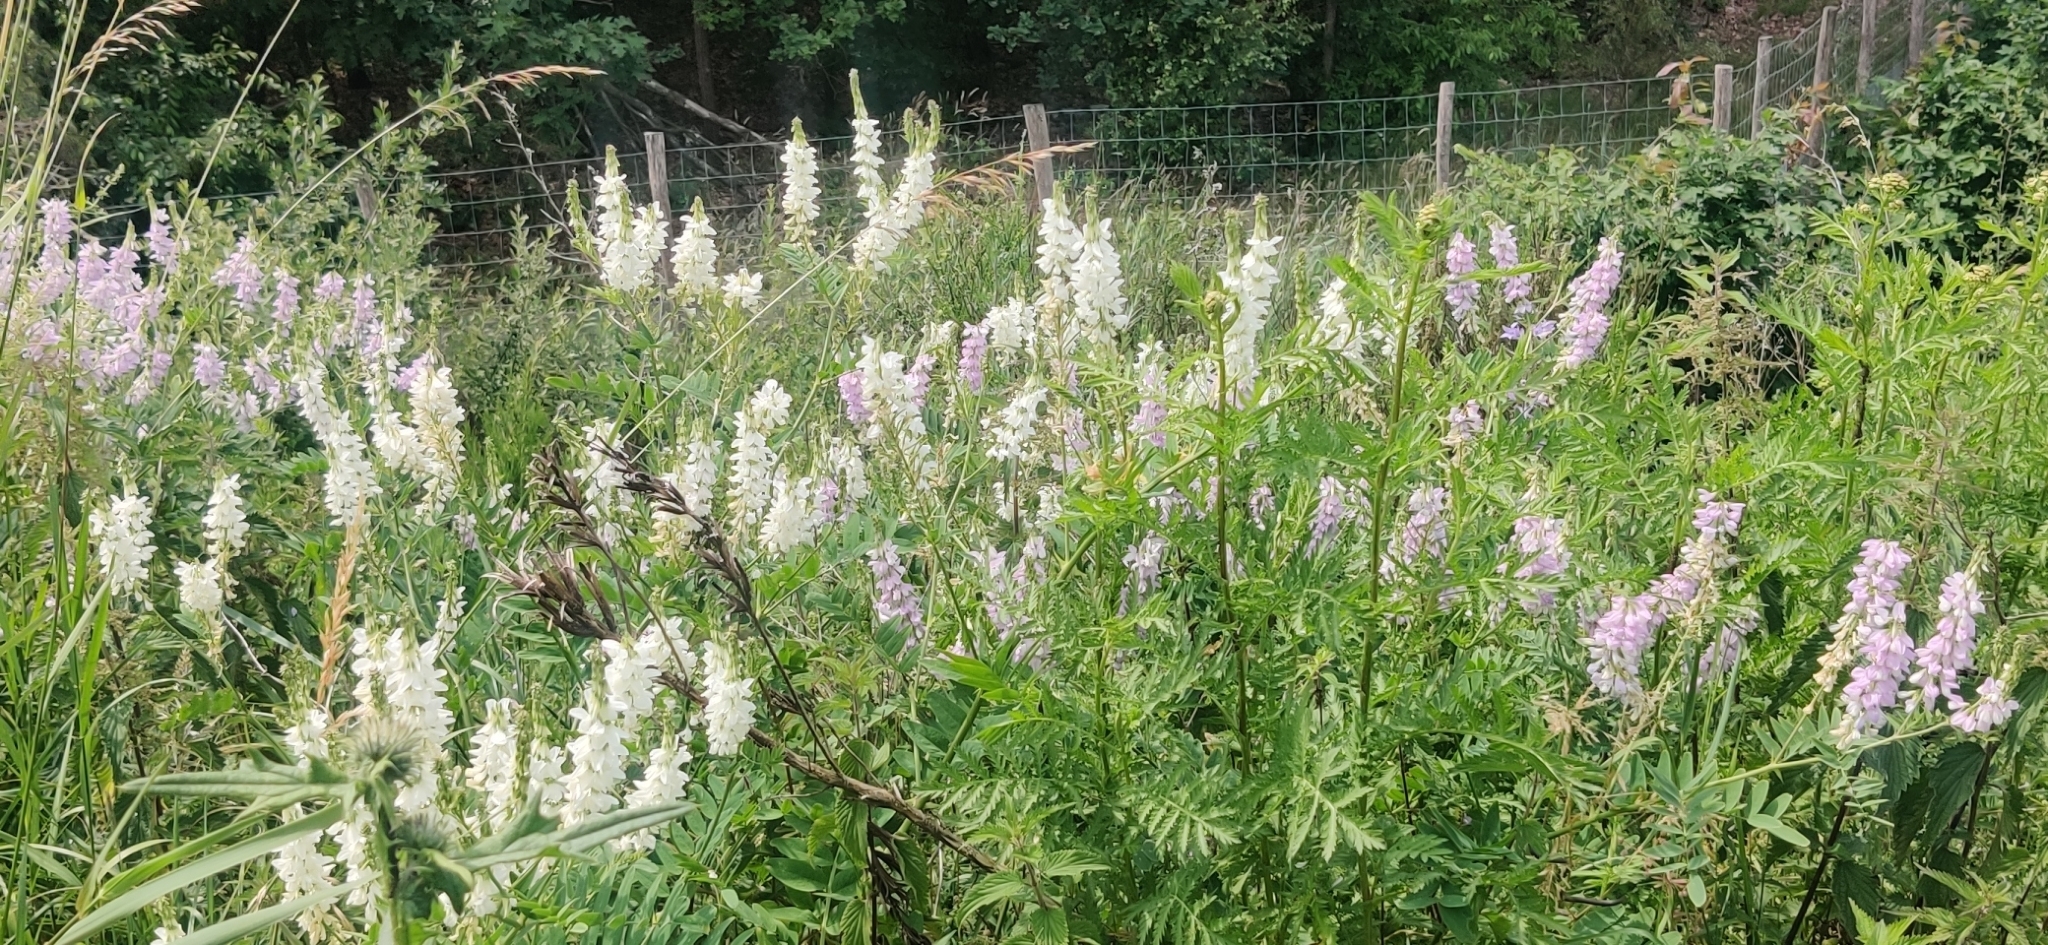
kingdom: Plantae
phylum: Tracheophyta
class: Magnoliopsida
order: Fabales
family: Fabaceae
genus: Galega
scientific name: Galega officinalis
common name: Goat's-rue
